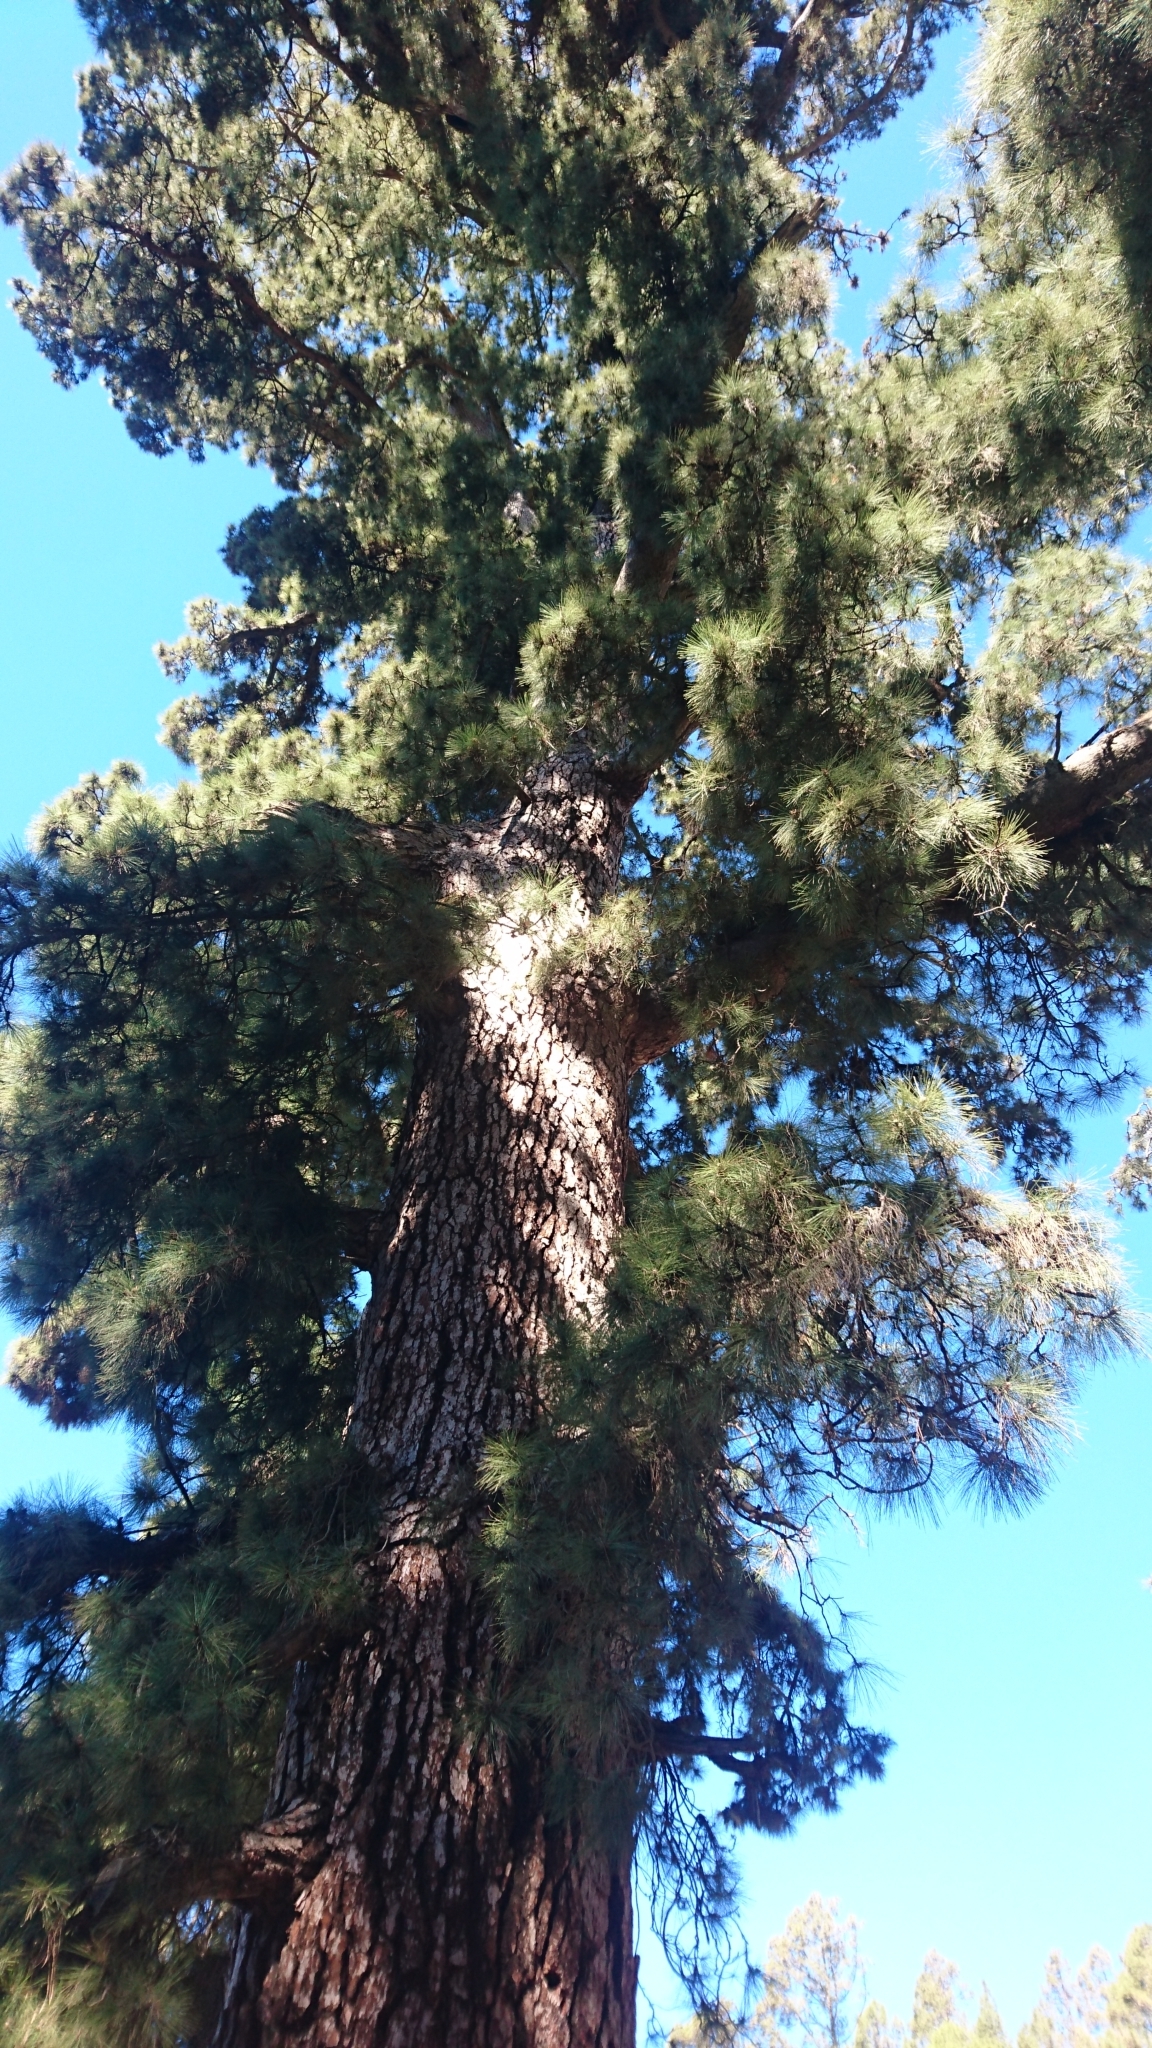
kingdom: Plantae
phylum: Tracheophyta
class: Pinopsida
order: Pinales
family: Pinaceae
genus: Pinus
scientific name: Pinus canariensis
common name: Canary islands pine
